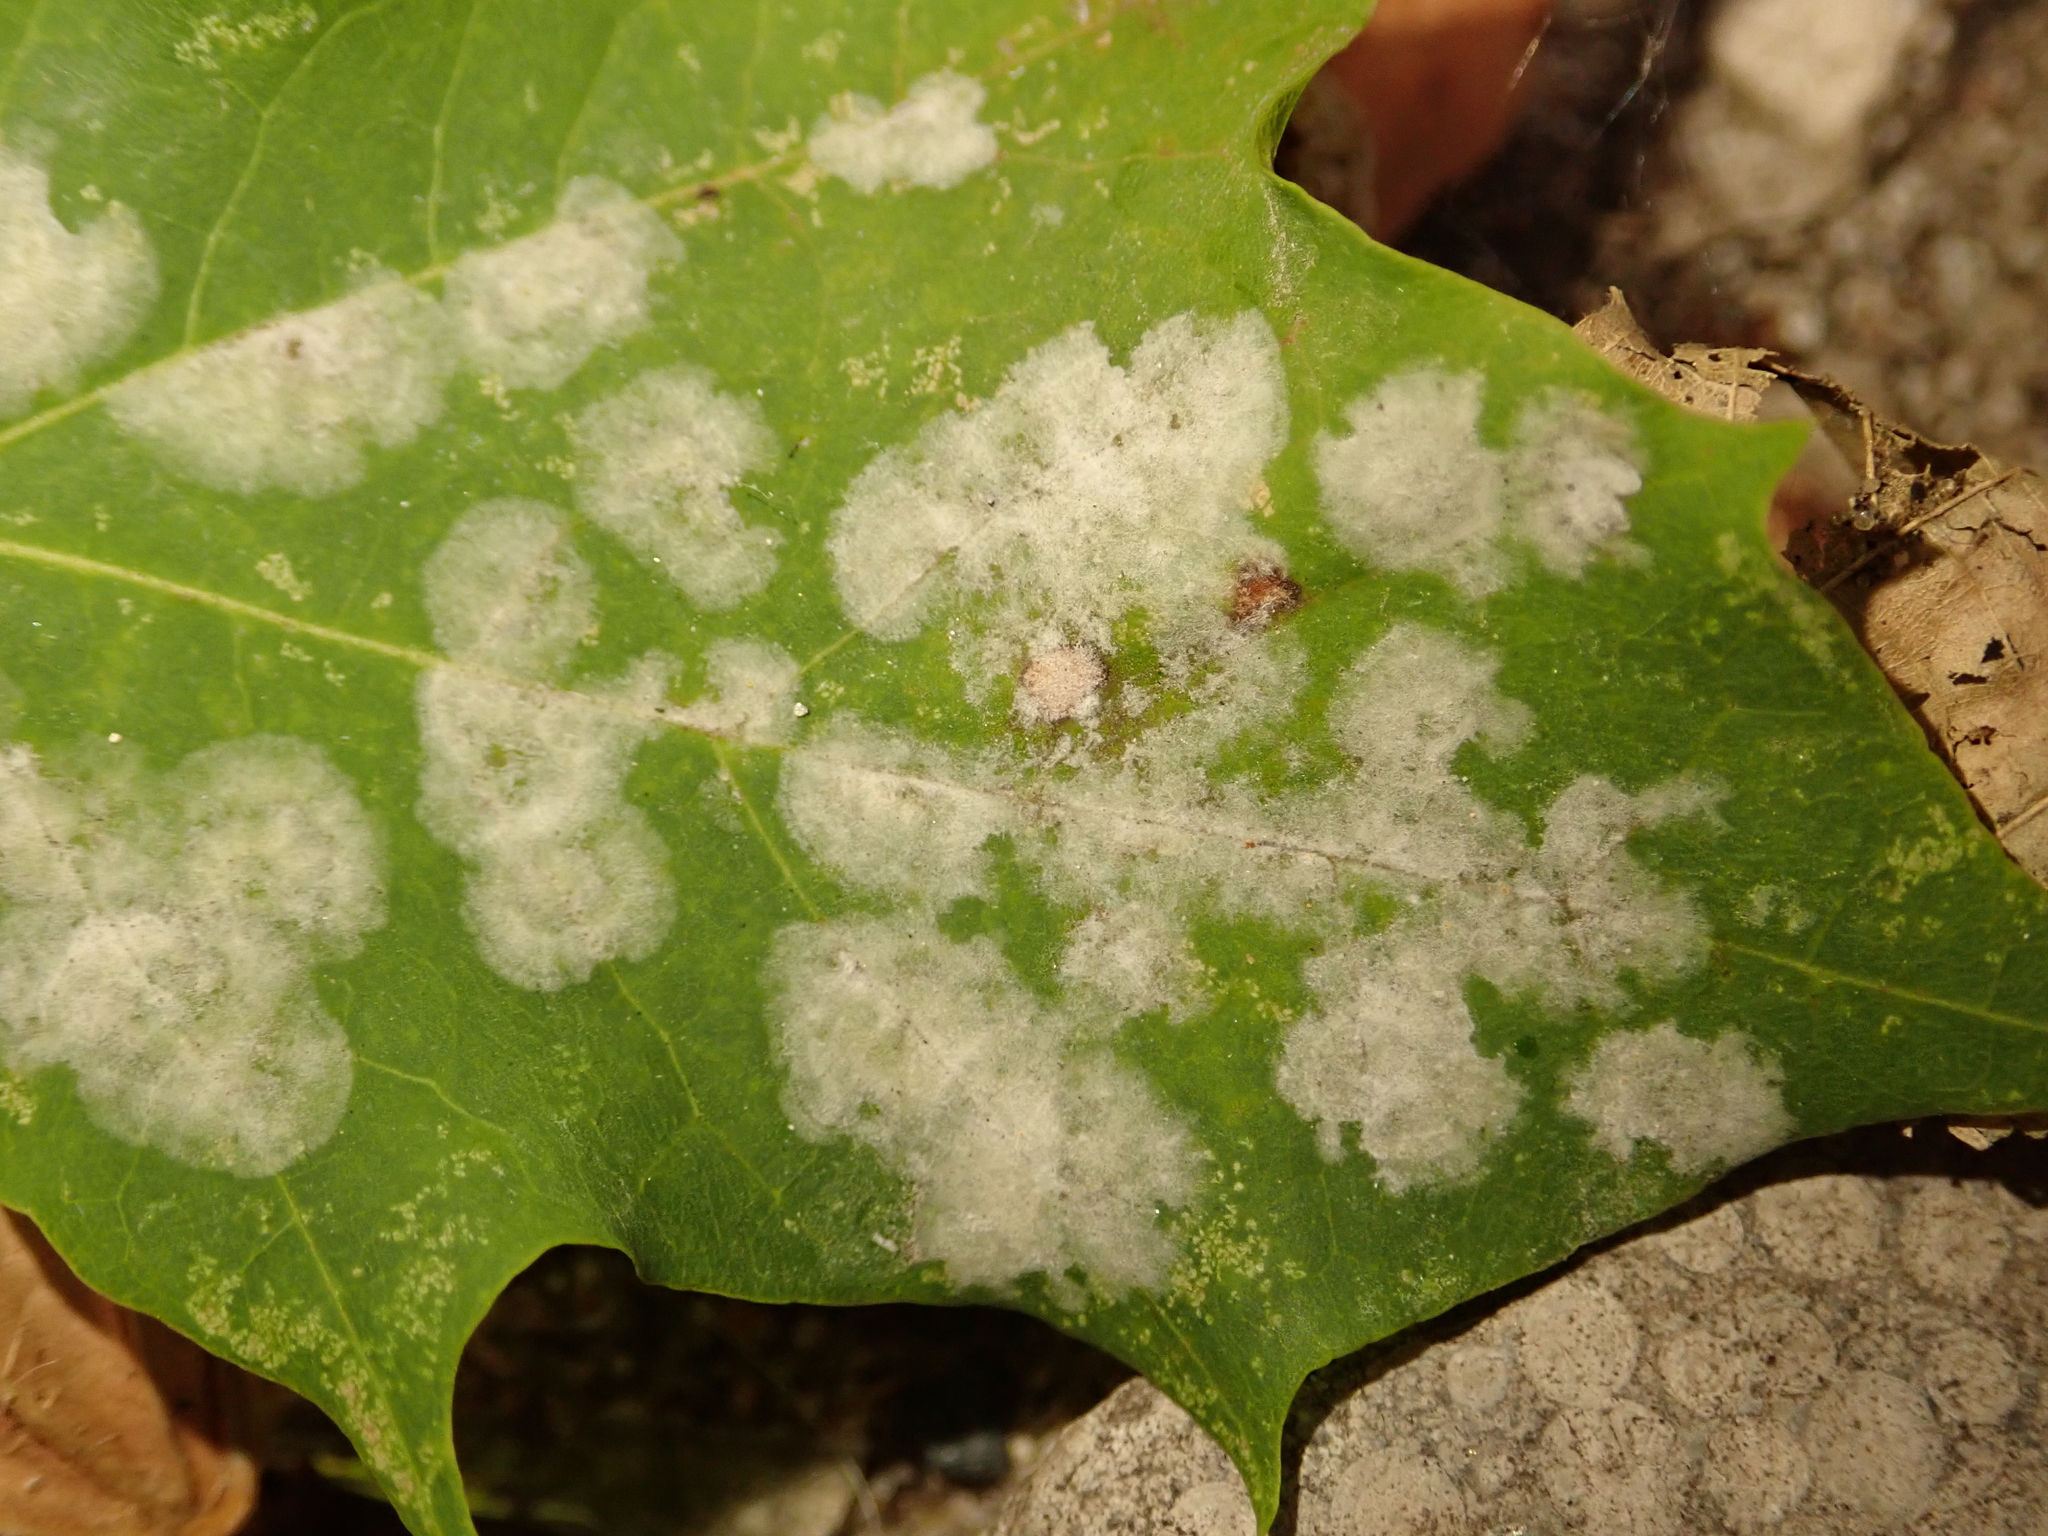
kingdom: Fungi
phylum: Ascomycota
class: Leotiomycetes
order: Helotiales
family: Erysiphaceae
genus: Sawadaea
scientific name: Sawadaea bicornis
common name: Maple mildew
